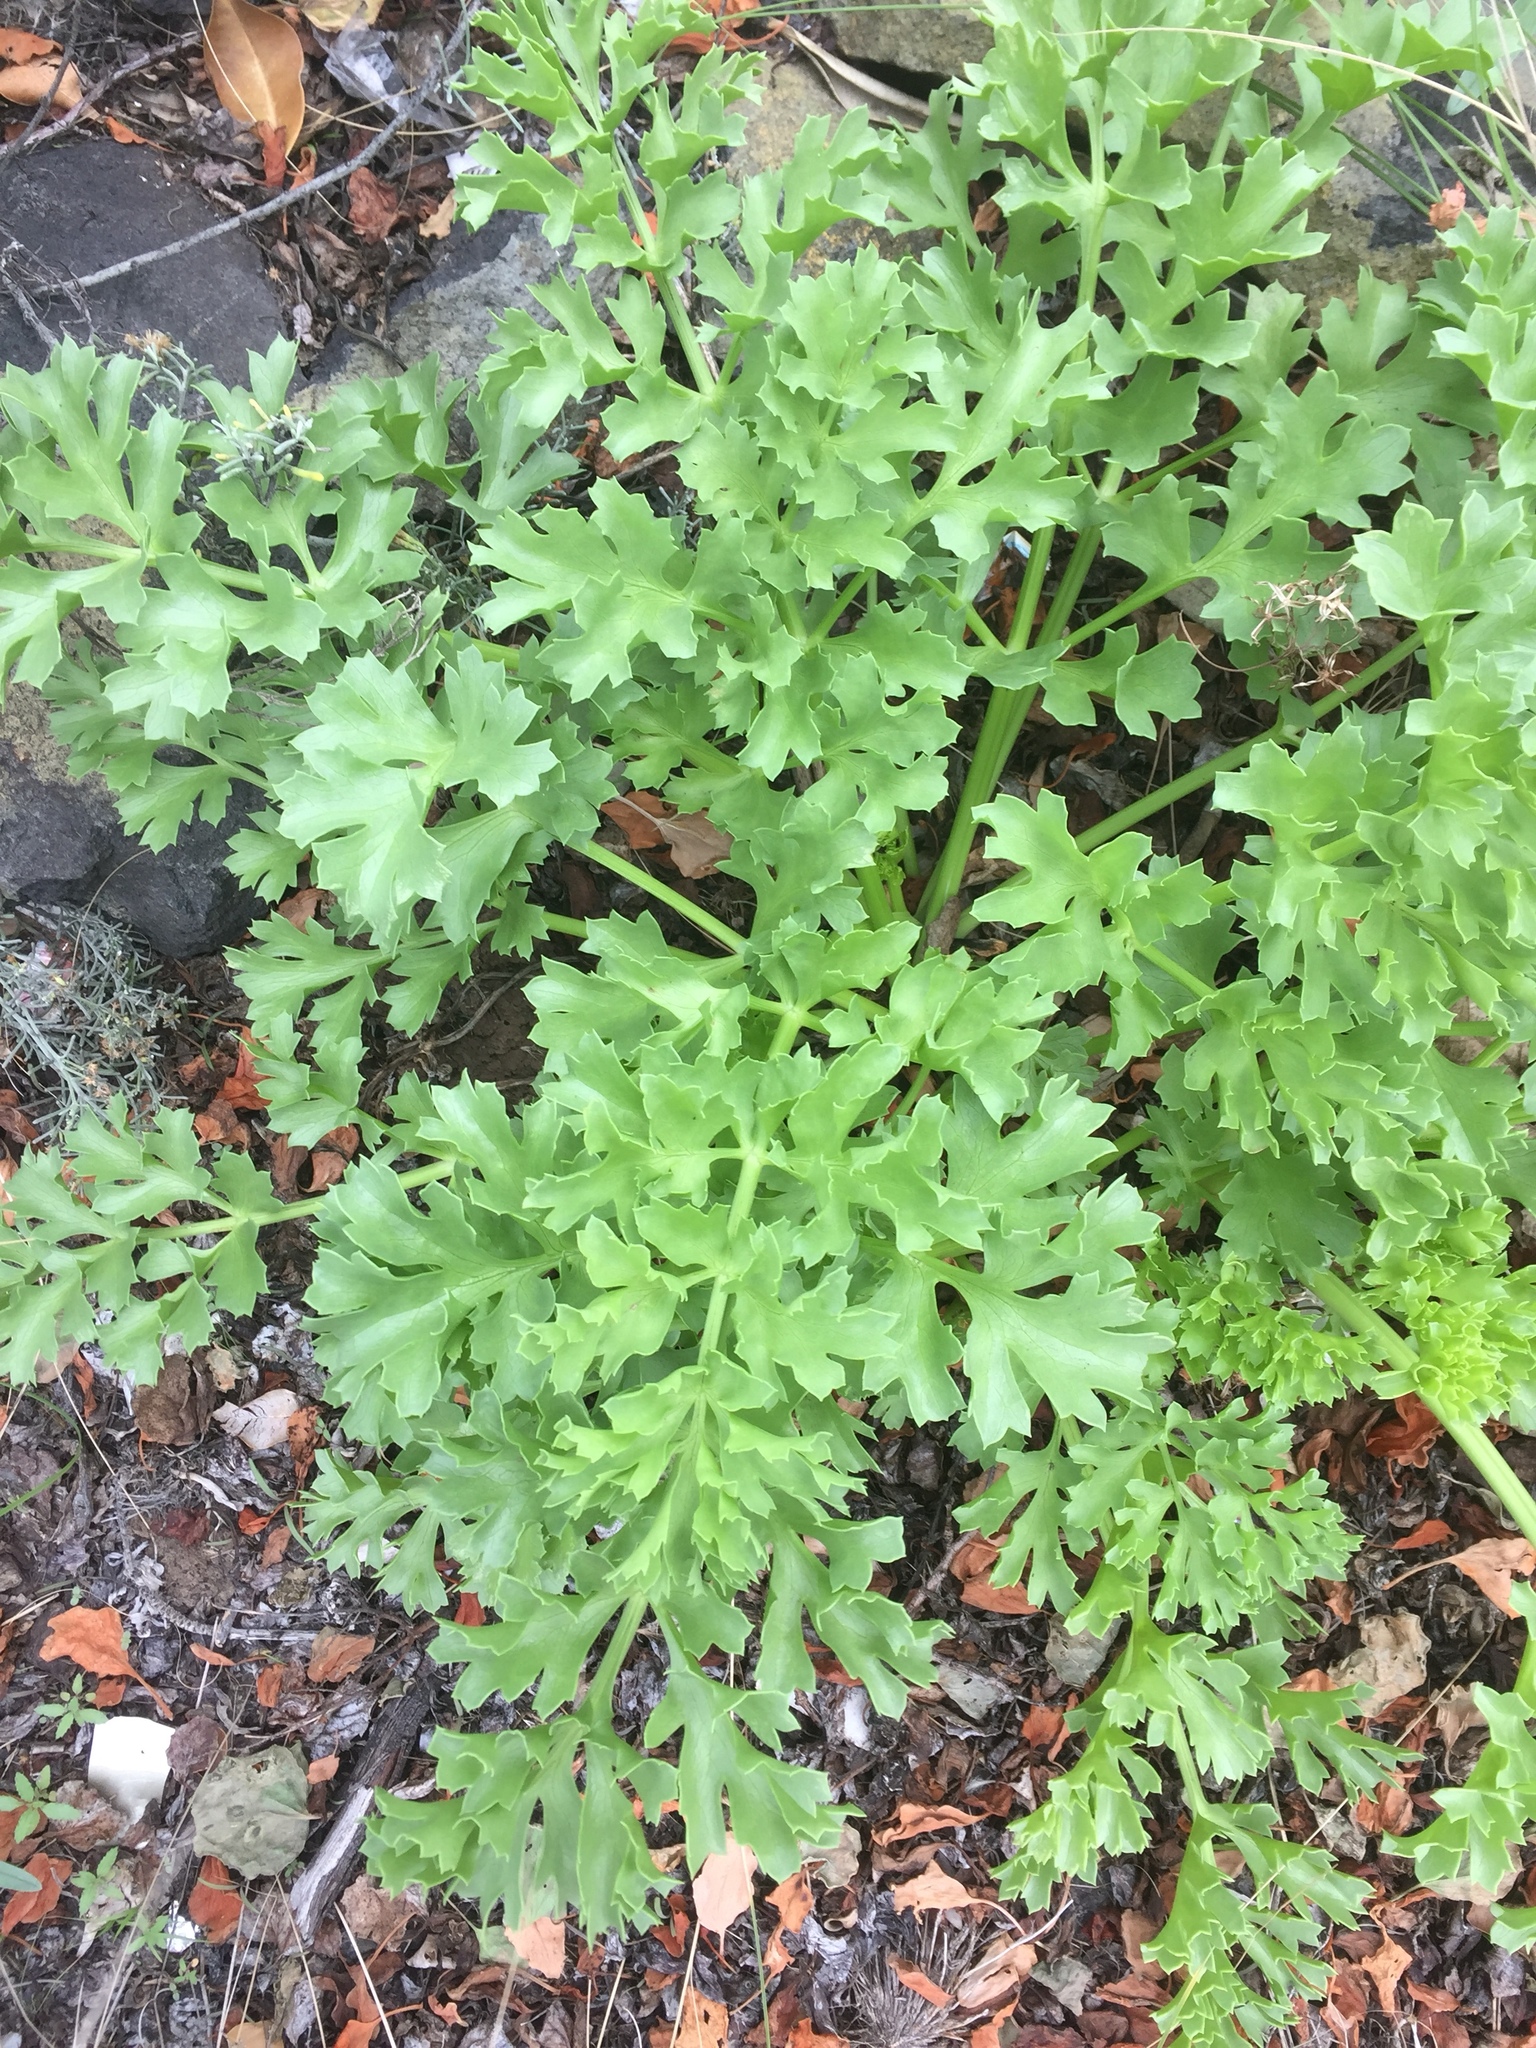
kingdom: Plantae
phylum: Tracheophyta
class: Magnoliopsida
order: Apiales
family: Apiaceae
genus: Astydamia
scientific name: Astydamia latifolia
